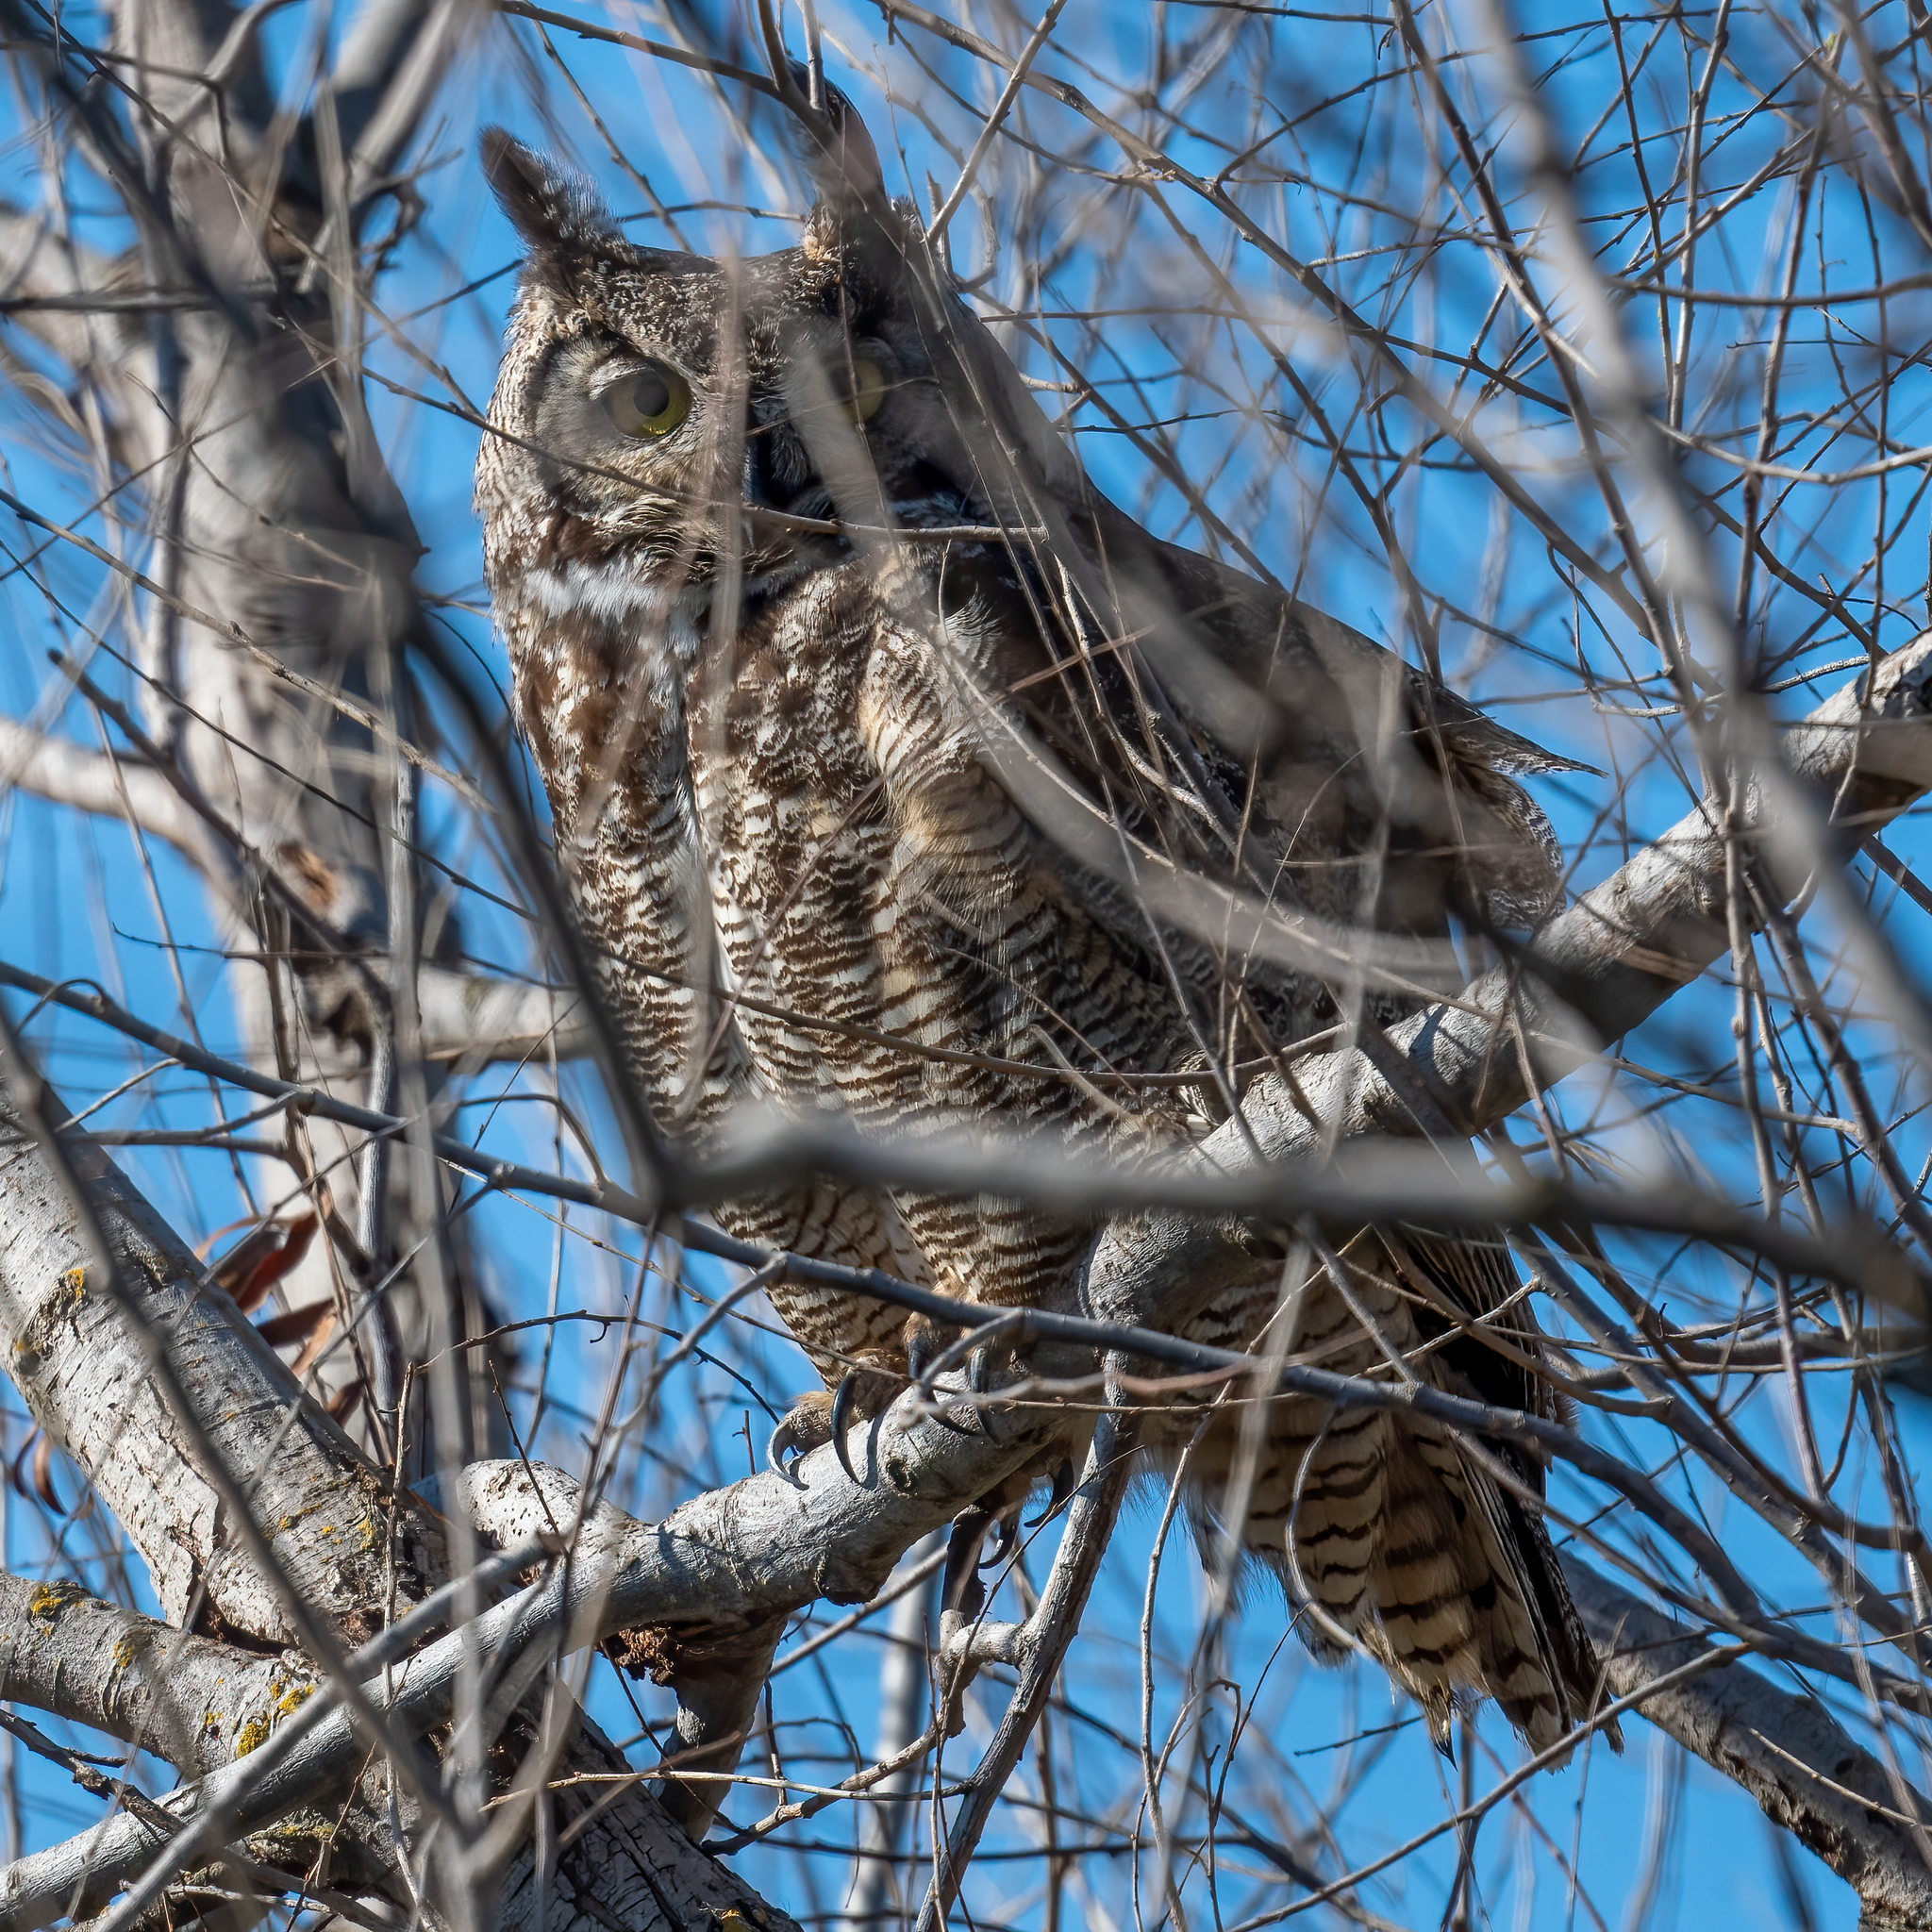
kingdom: Animalia
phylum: Chordata
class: Aves
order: Strigiformes
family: Strigidae
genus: Bubo
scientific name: Bubo virginianus
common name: Great horned owl
